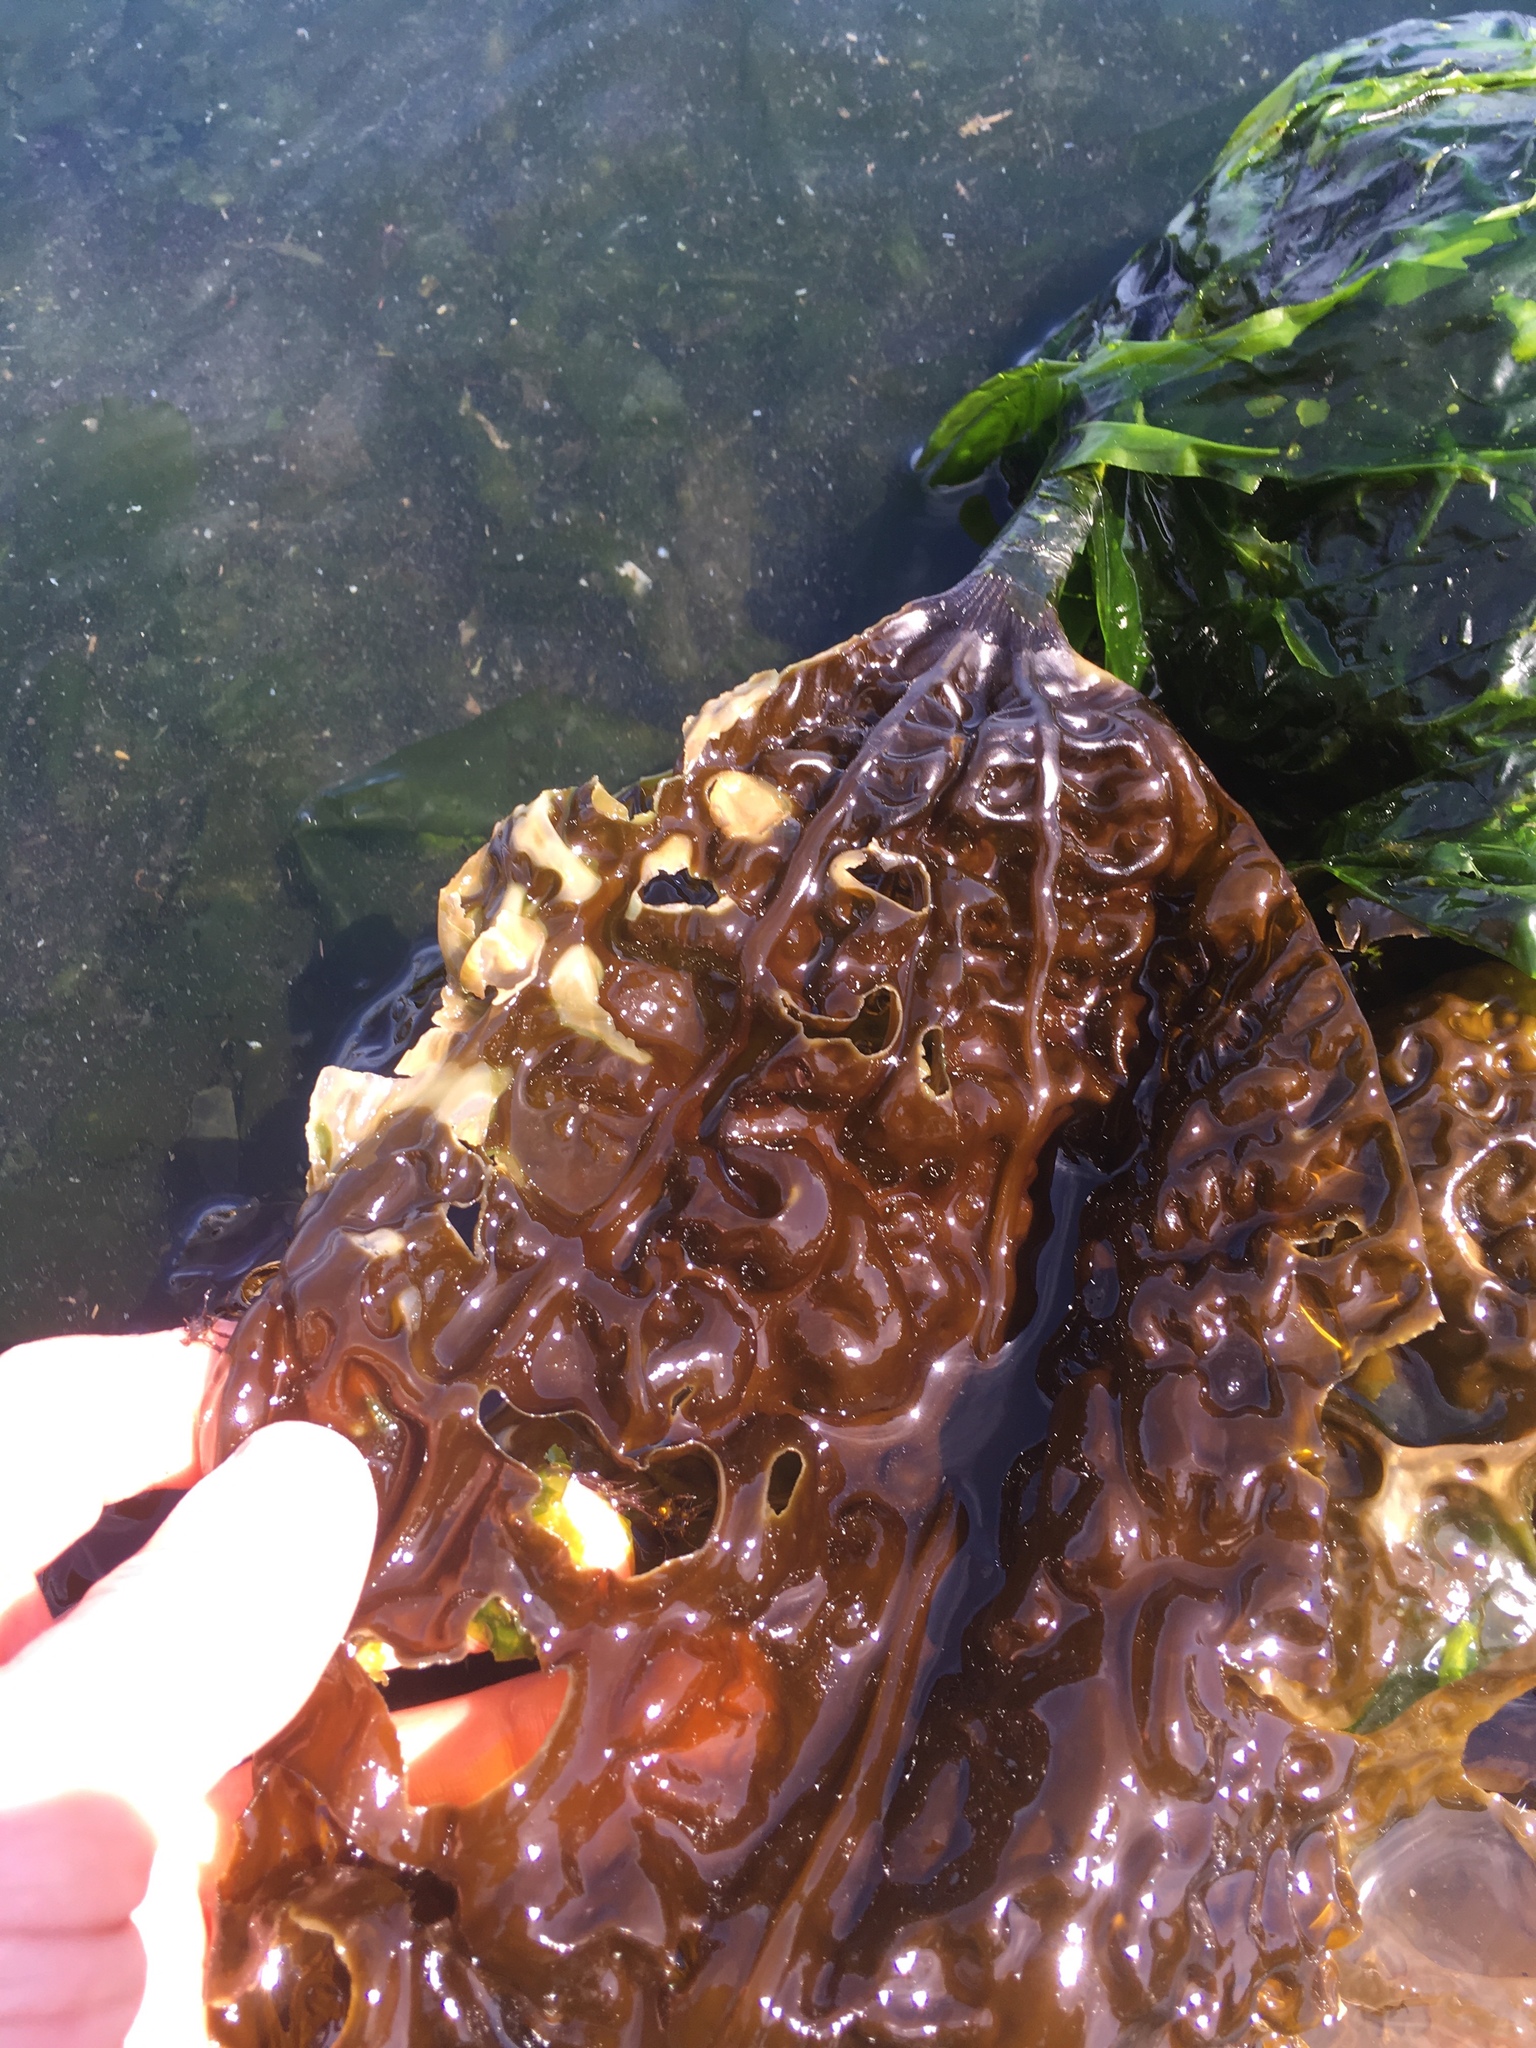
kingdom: Chromista
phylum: Ochrophyta
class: Phaeophyceae
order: Laminariales
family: Costariaceae
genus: Costaria
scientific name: Costaria costata
